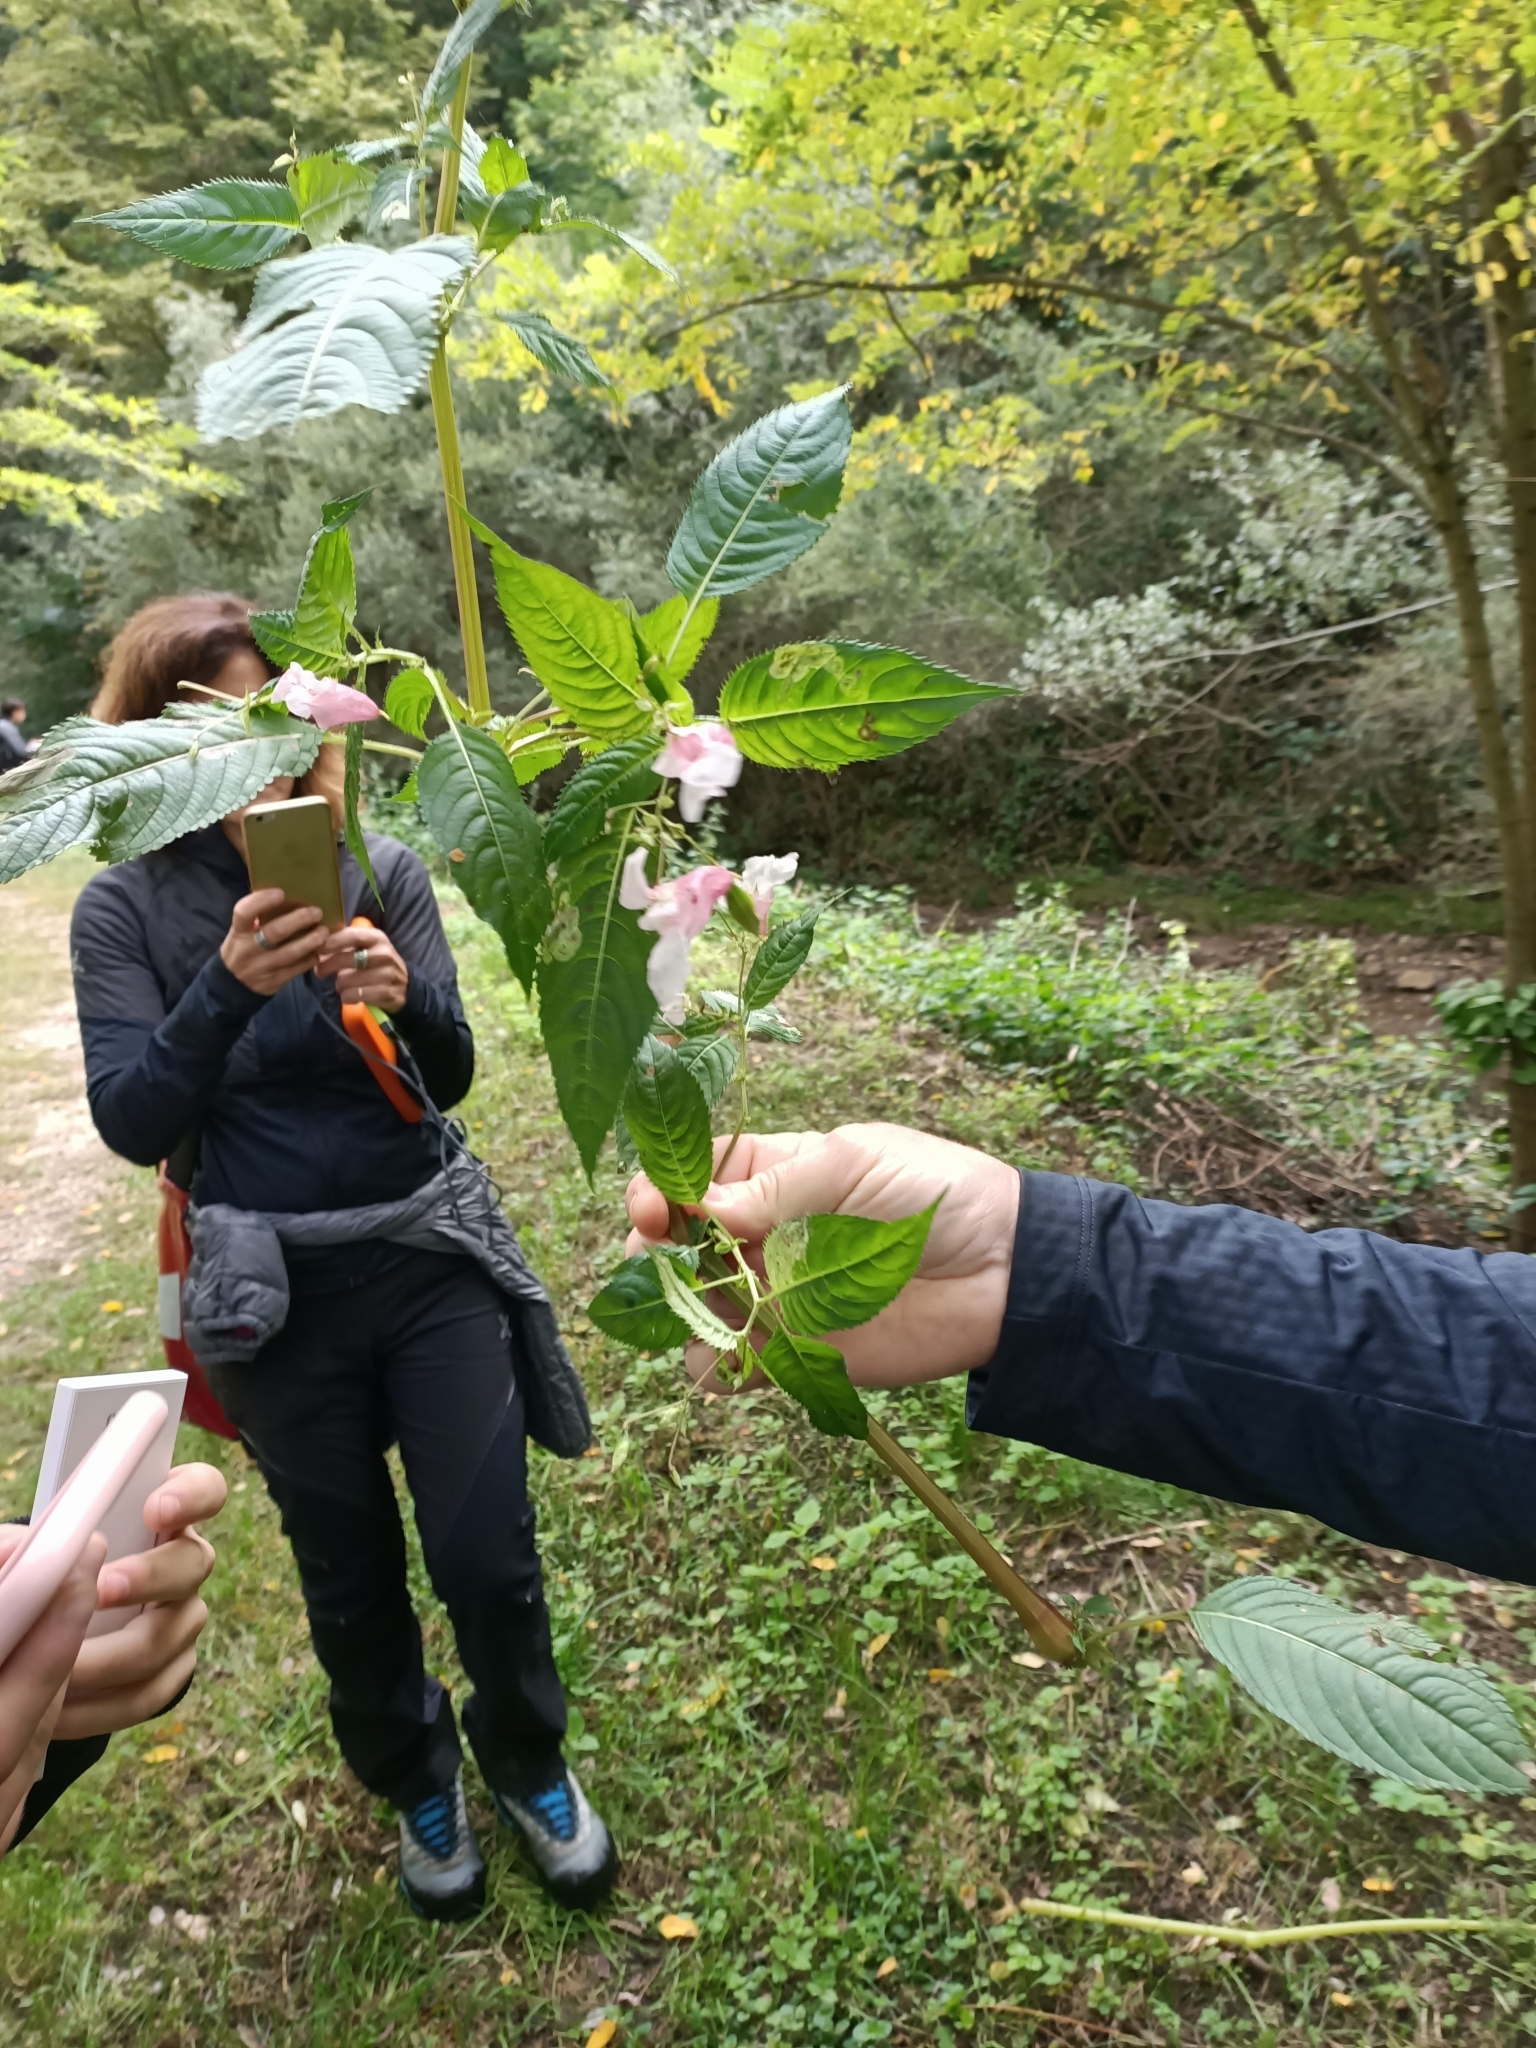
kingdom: Plantae
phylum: Tracheophyta
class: Magnoliopsida
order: Ericales
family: Balsaminaceae
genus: Impatiens
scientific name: Impatiens glandulifera
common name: Himalayan balsam
